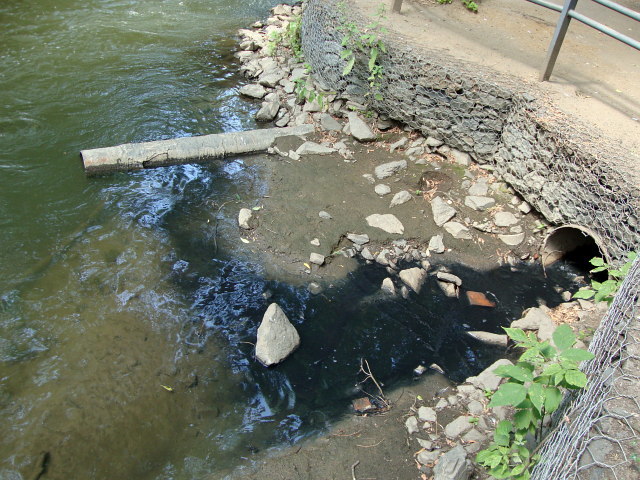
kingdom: Plantae
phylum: Tracheophyta
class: Magnoliopsida
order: Sapindales
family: Sapindaceae
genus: Acer
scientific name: Acer negundo
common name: Ashleaf maple
